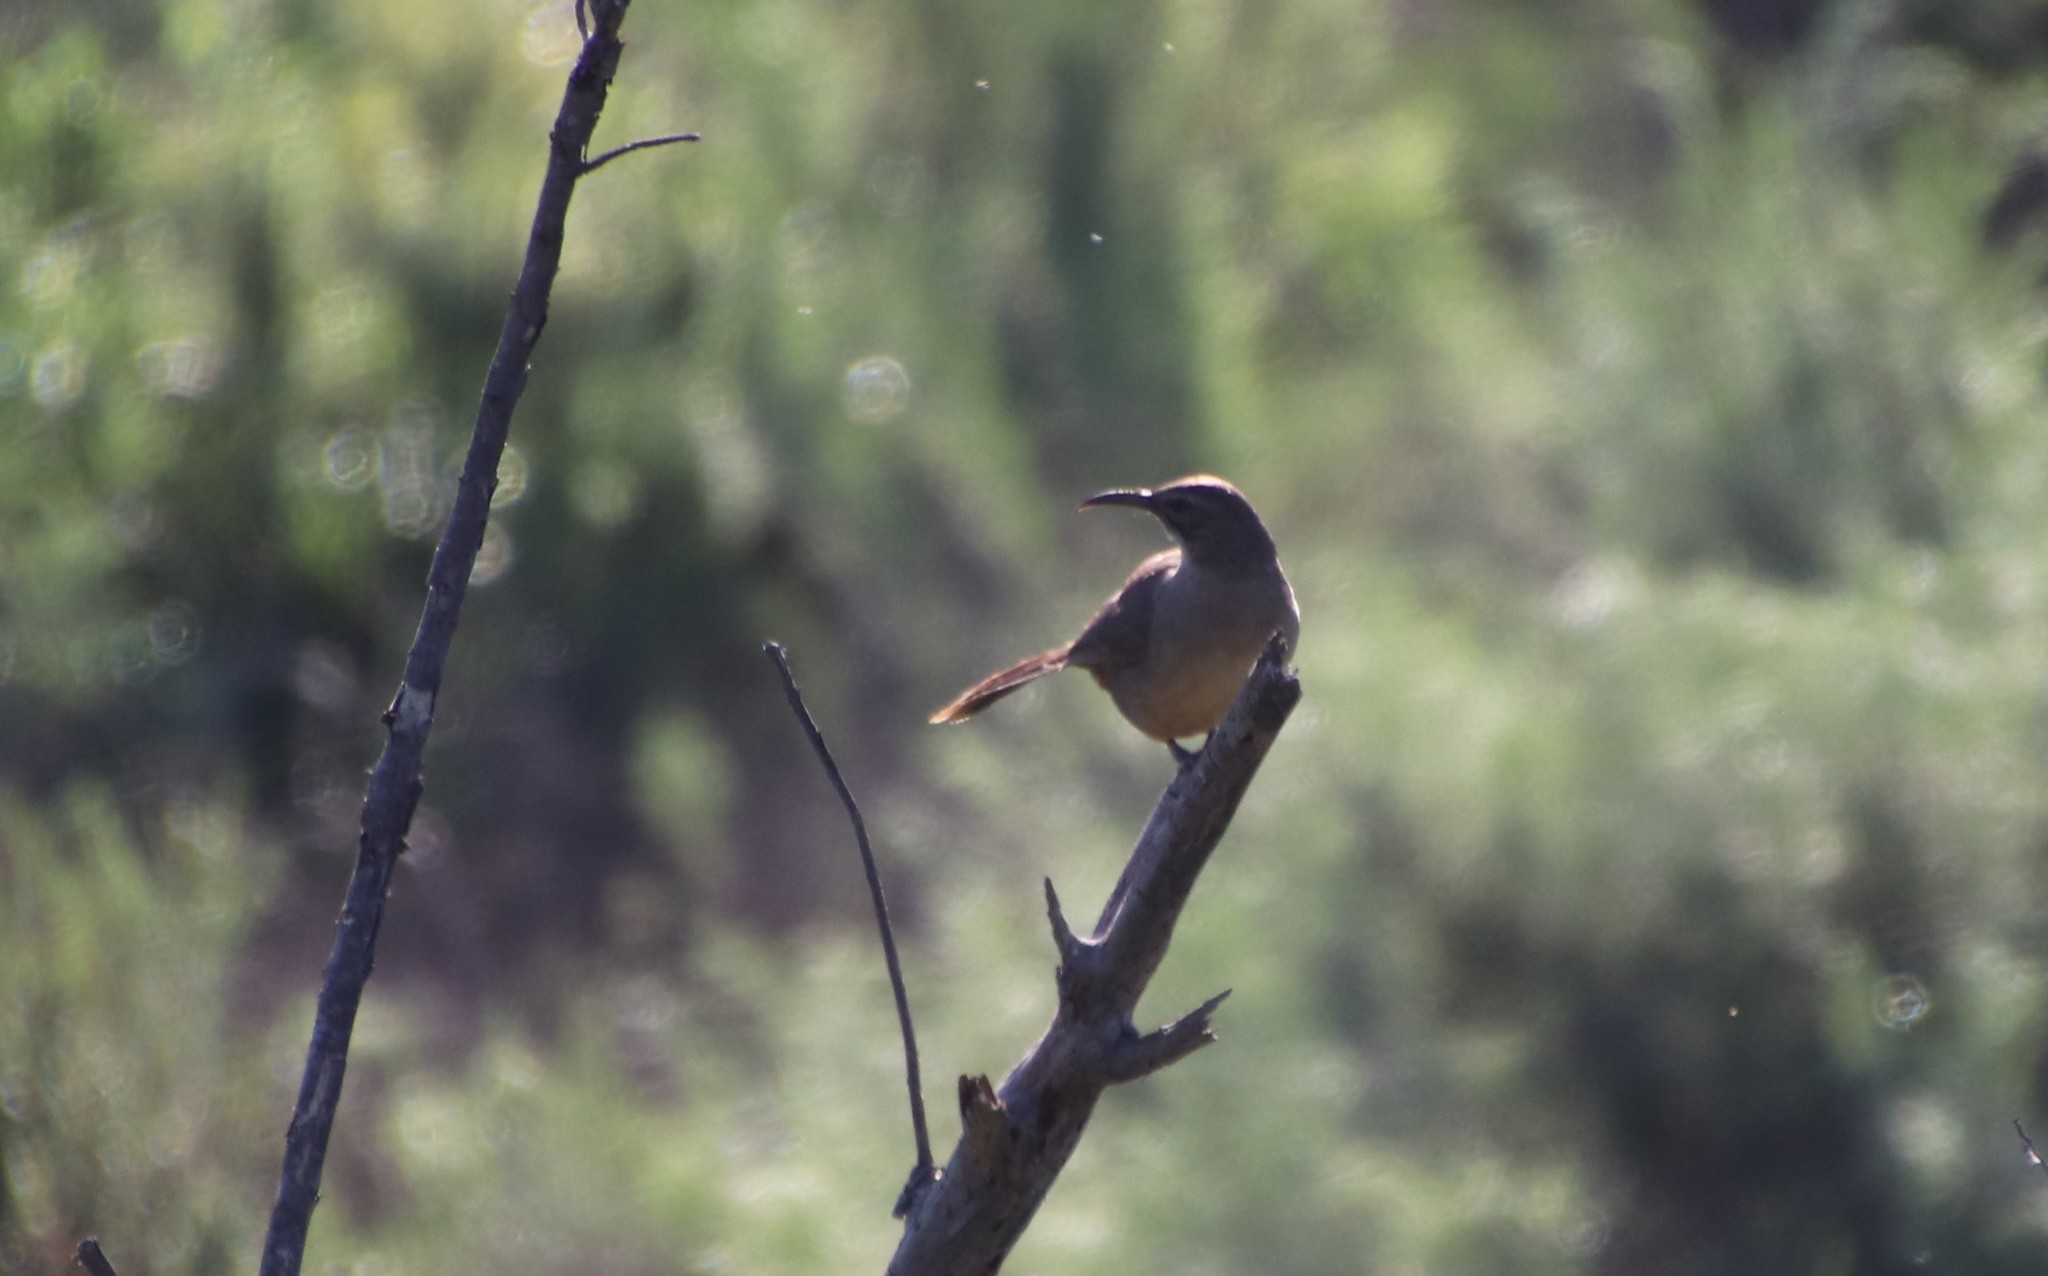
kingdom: Animalia
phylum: Chordata
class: Aves
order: Passeriformes
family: Mimidae
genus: Toxostoma
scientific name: Toxostoma redivivum
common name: California thrasher
